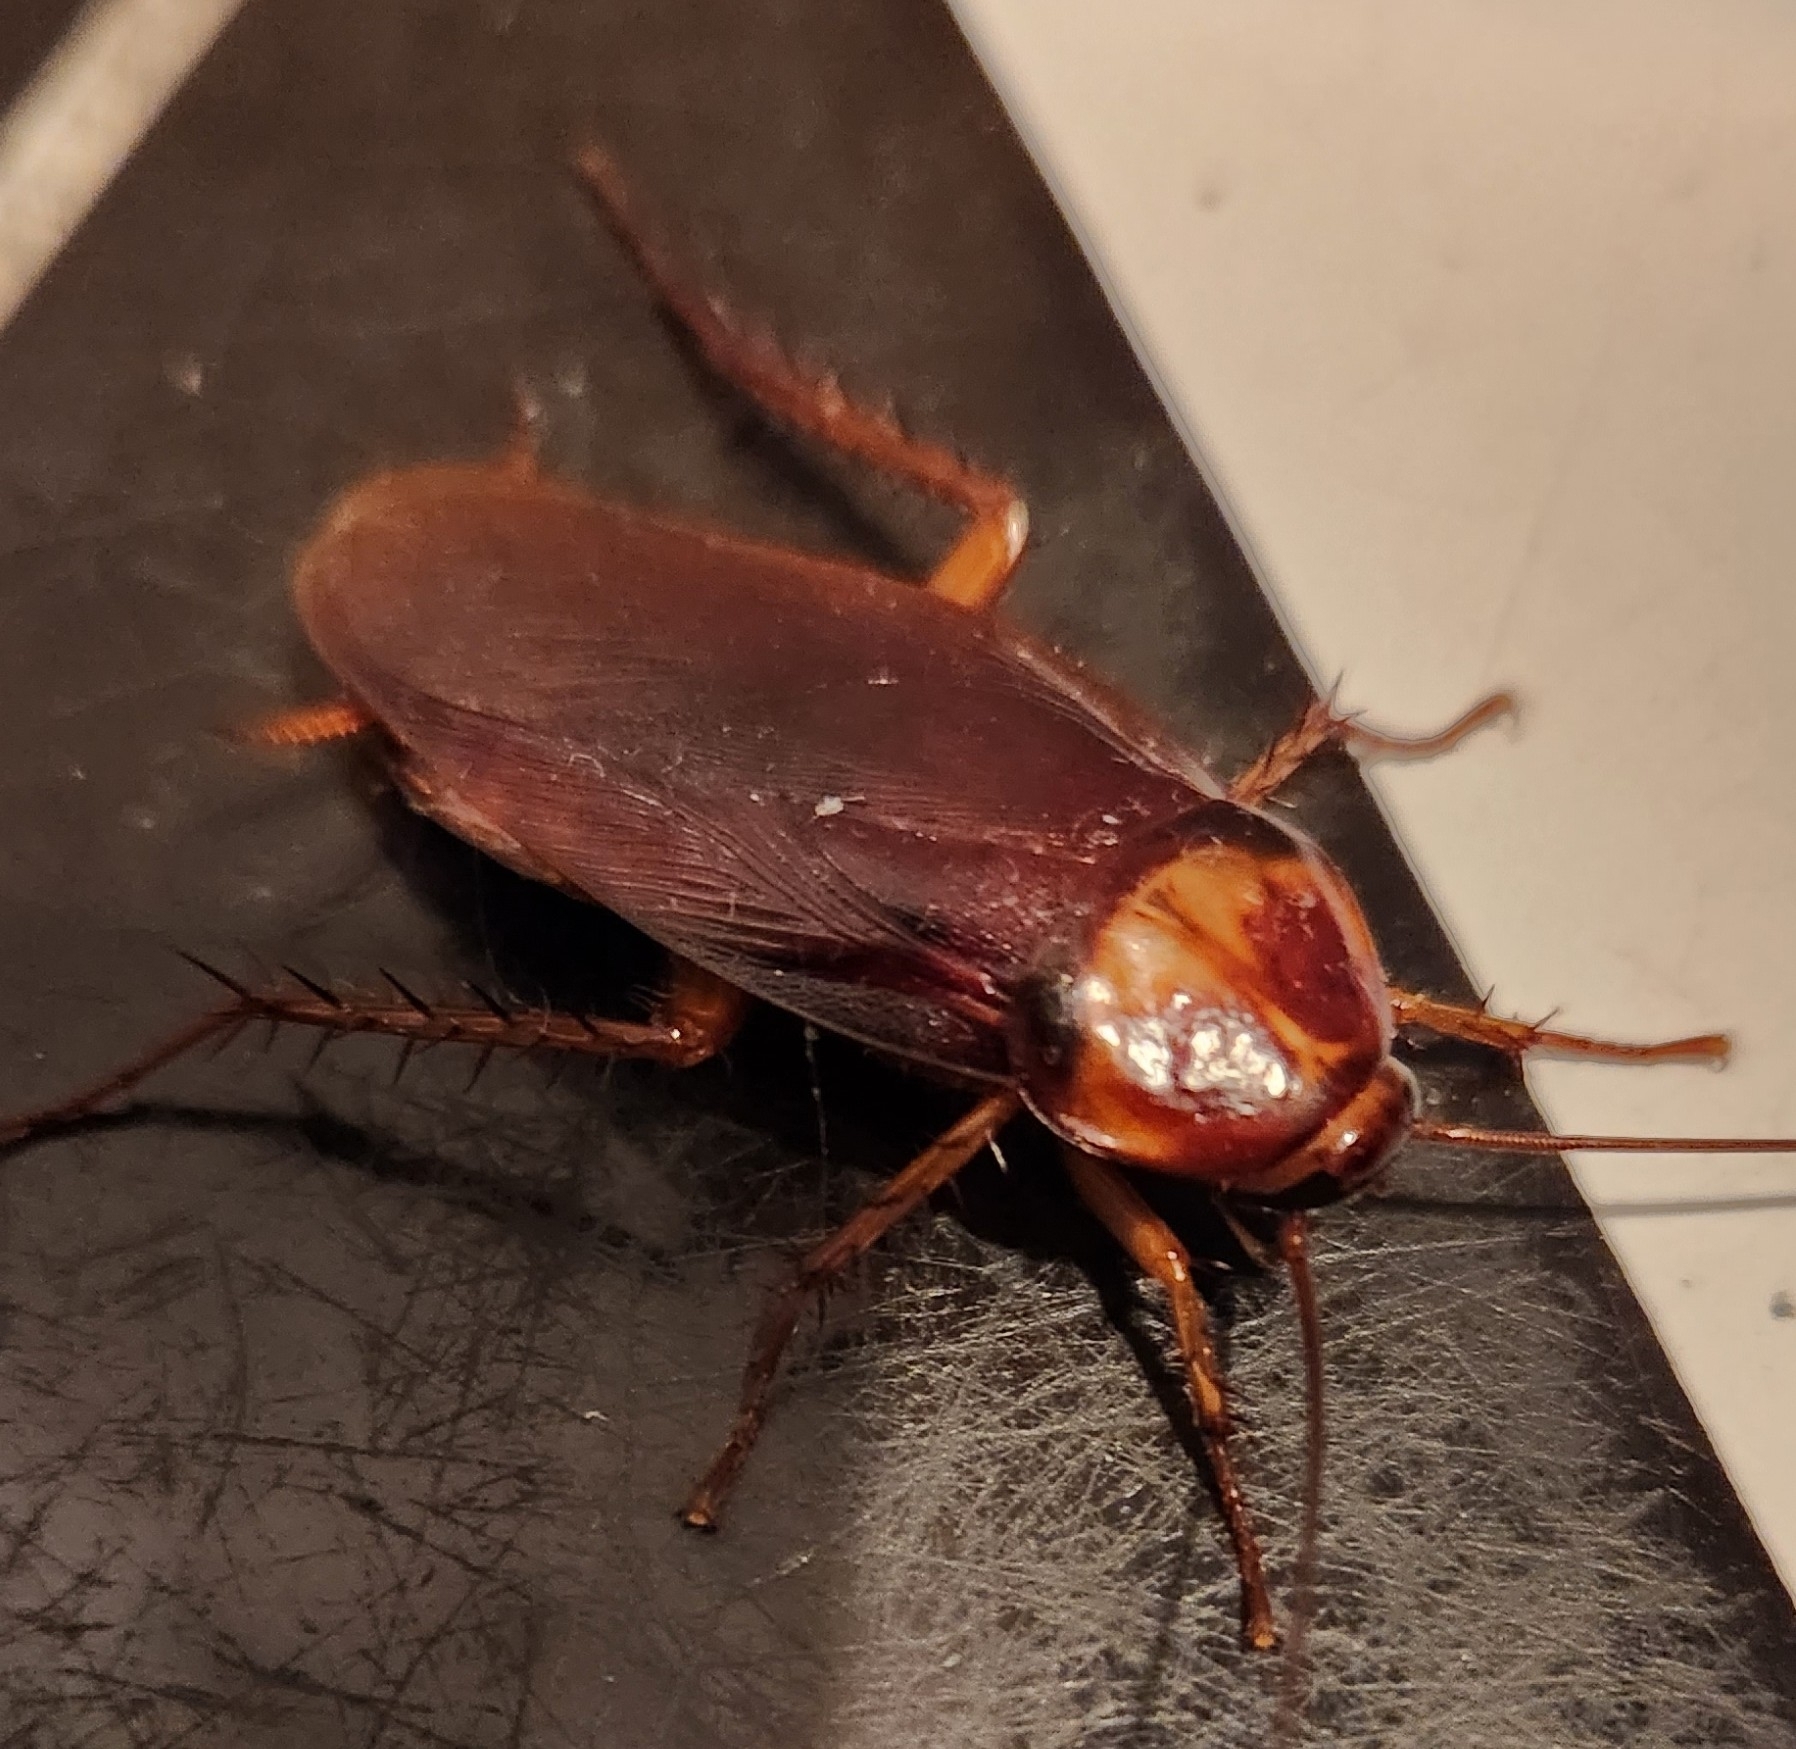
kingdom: Animalia
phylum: Arthropoda
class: Insecta
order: Blattodea
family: Blattidae
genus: Periplaneta
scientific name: Periplaneta americana
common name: American cockroach
